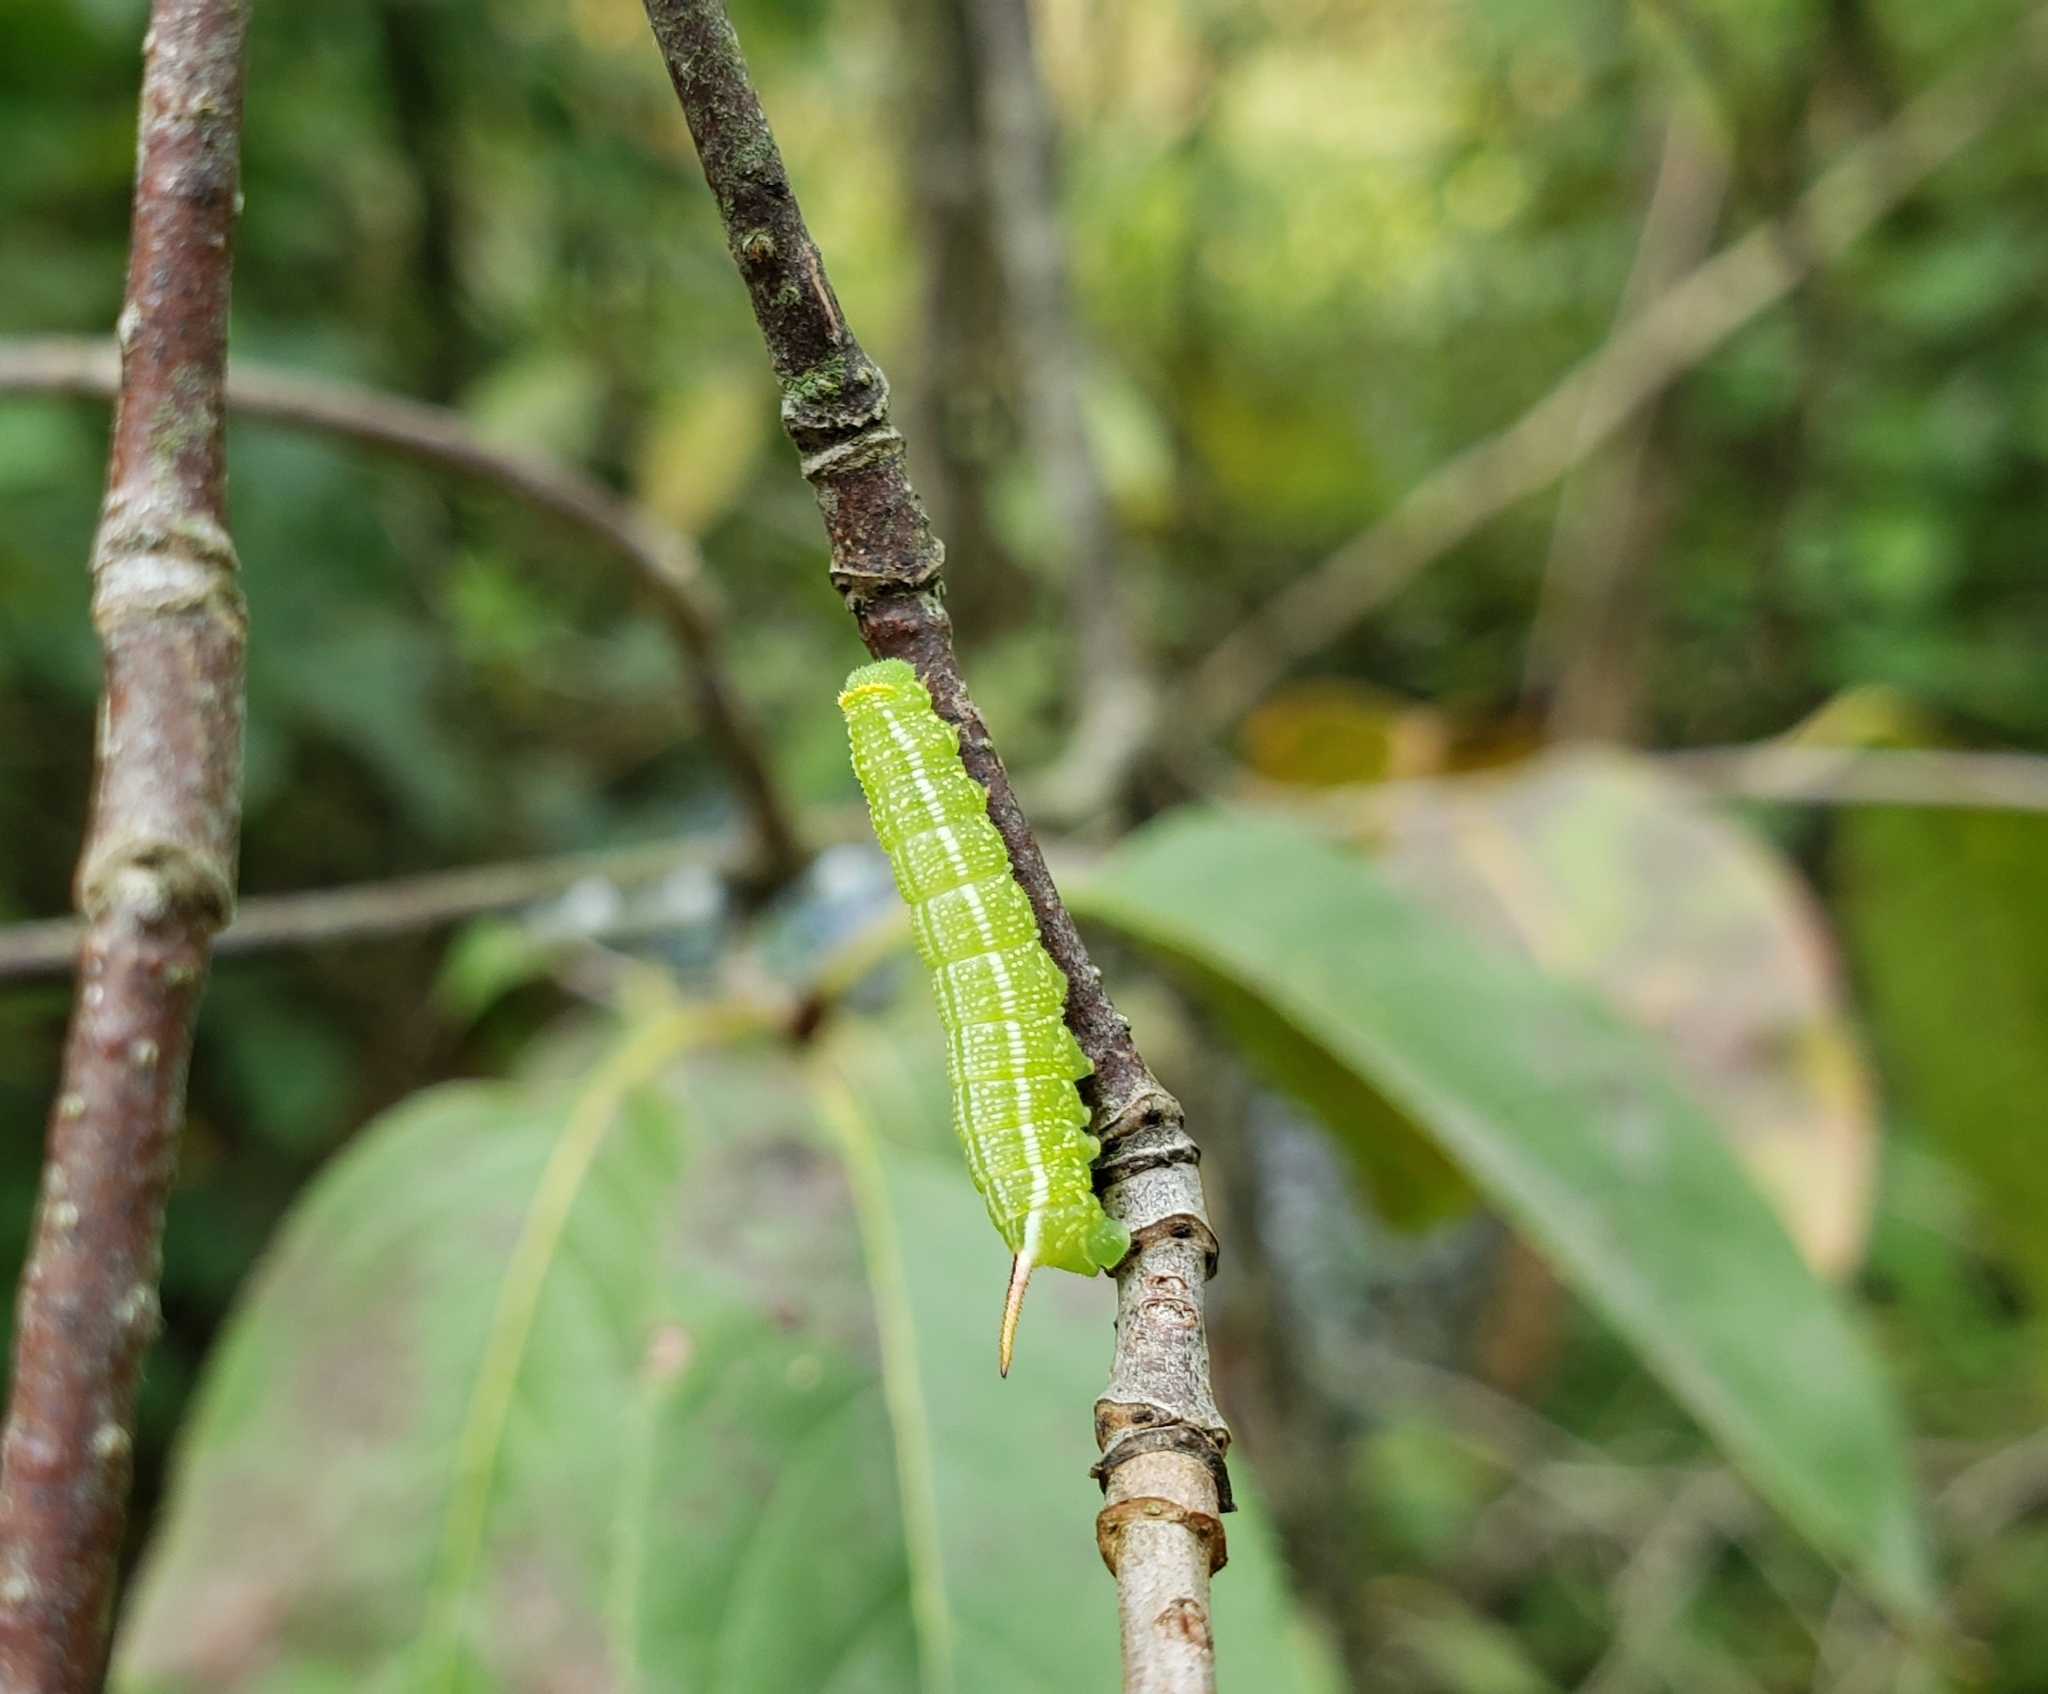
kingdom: Animalia
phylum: Arthropoda
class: Insecta
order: Lepidoptera
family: Sphingidae
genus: Hemaris
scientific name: Hemaris thysbe
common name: Common clear-wing
